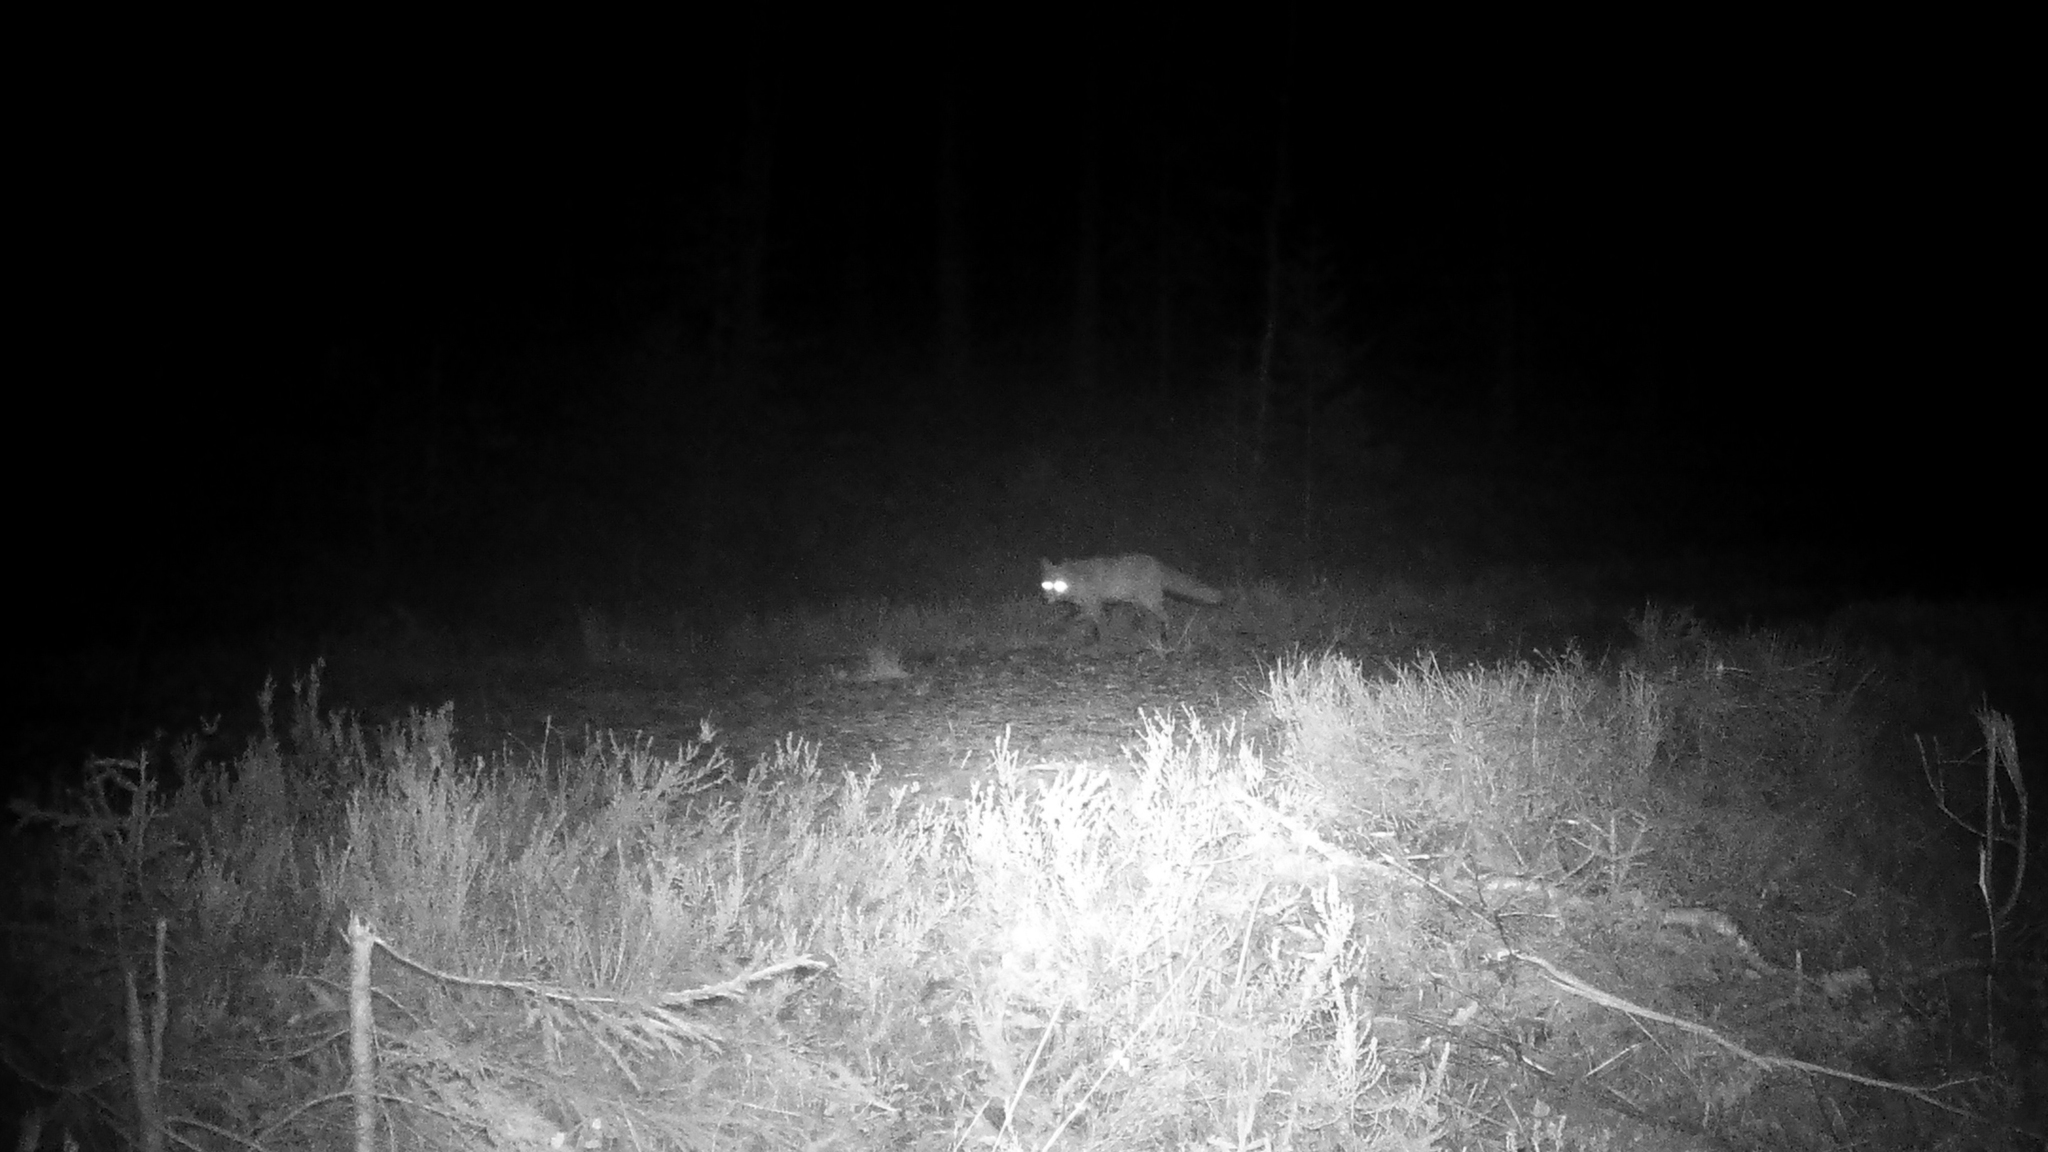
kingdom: Animalia
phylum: Chordata
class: Mammalia
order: Carnivora
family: Canidae
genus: Vulpes
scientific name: Vulpes vulpes
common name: Red fox
